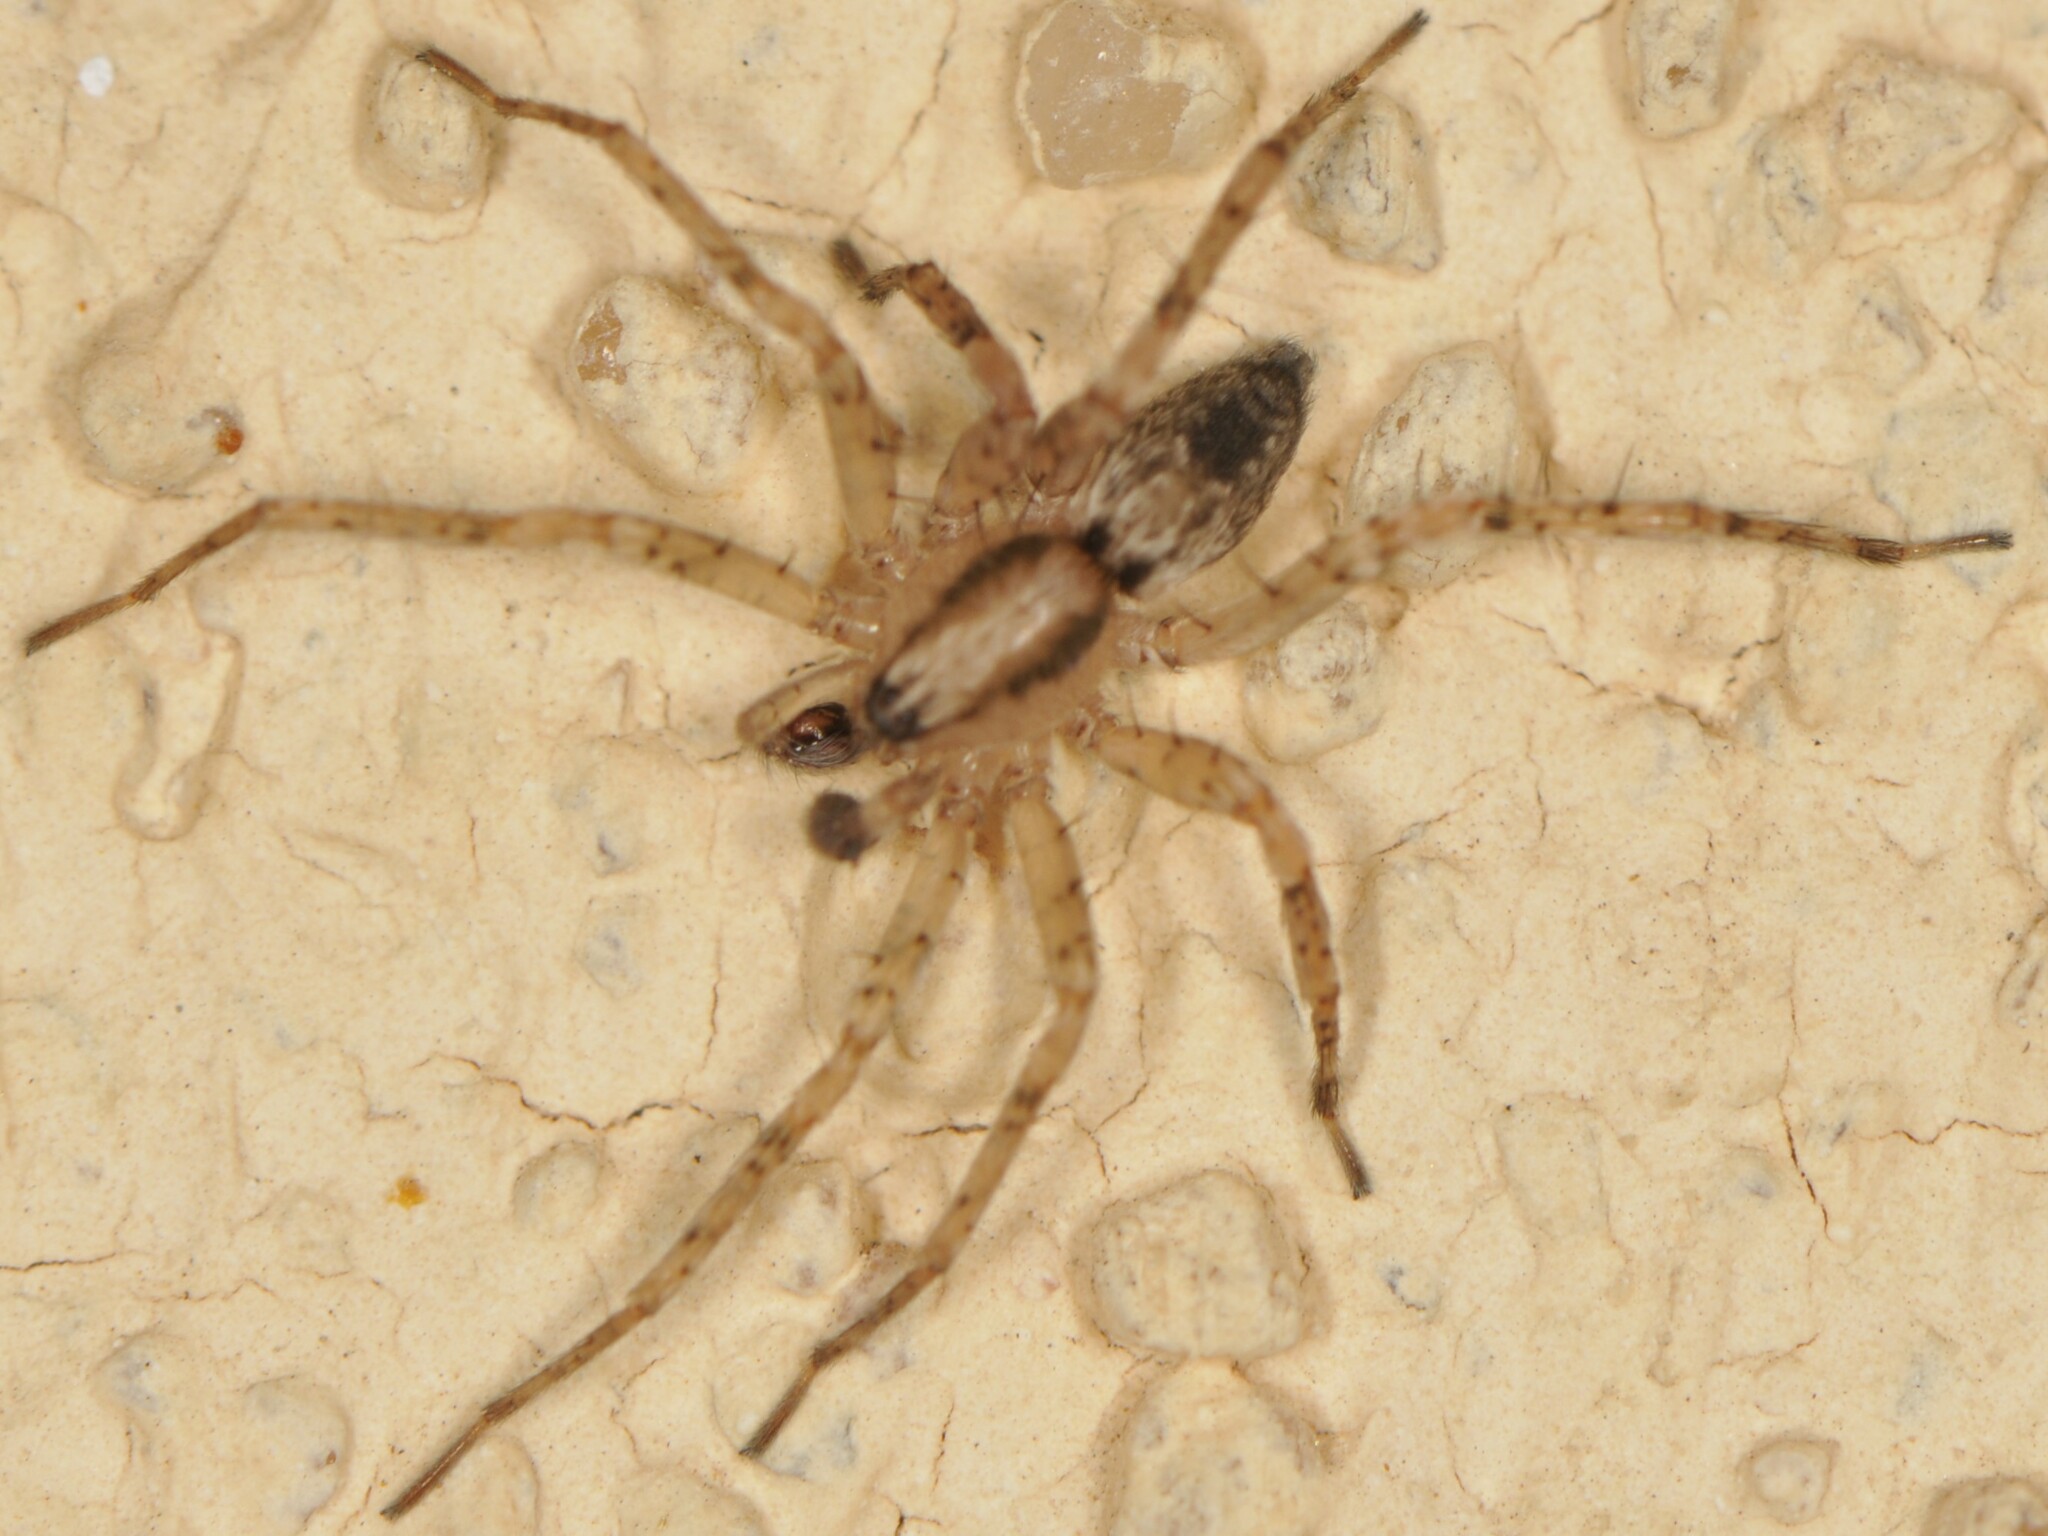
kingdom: Animalia
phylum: Arthropoda
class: Arachnida
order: Araneae
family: Anyphaenidae
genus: Anyphaena
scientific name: Anyphaena
